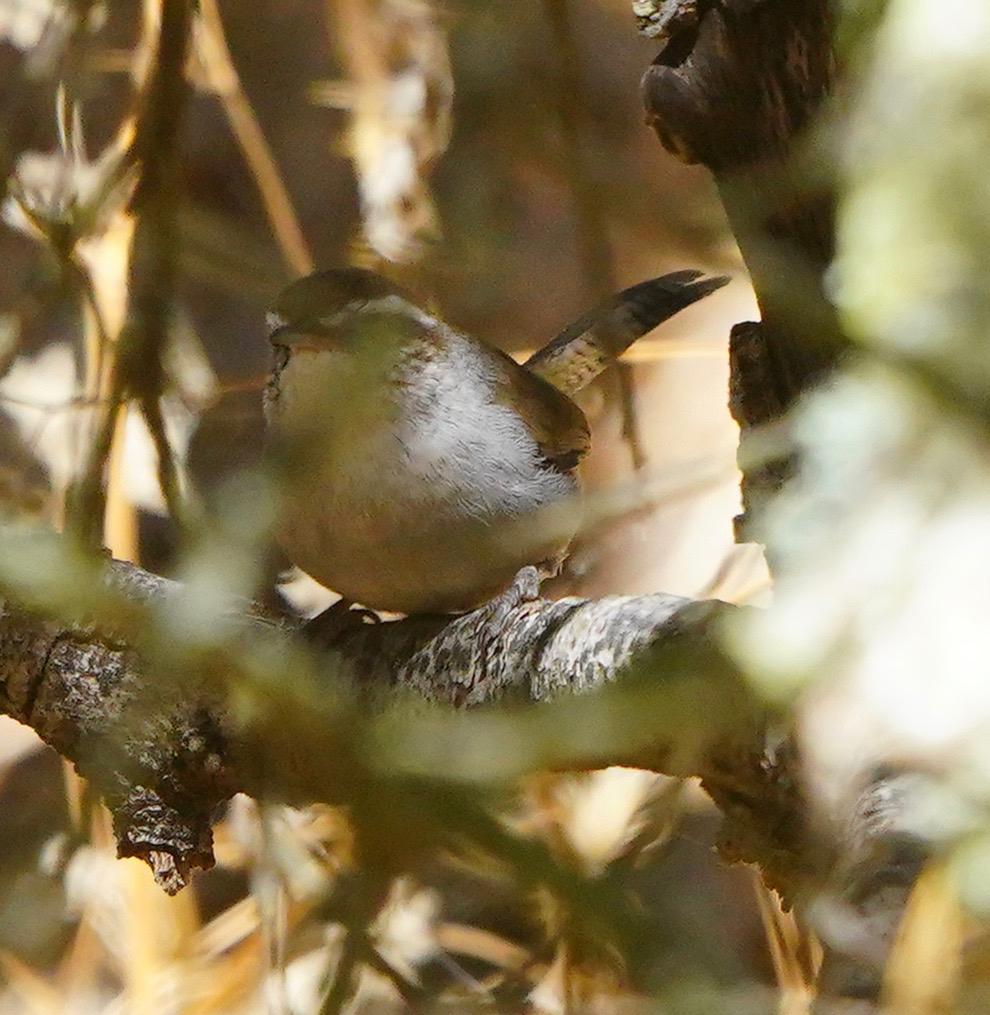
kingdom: Animalia
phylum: Chordata
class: Aves
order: Passeriformes
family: Troglodytidae
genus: Thryomanes
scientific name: Thryomanes bewickii
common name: Bewick's wren
